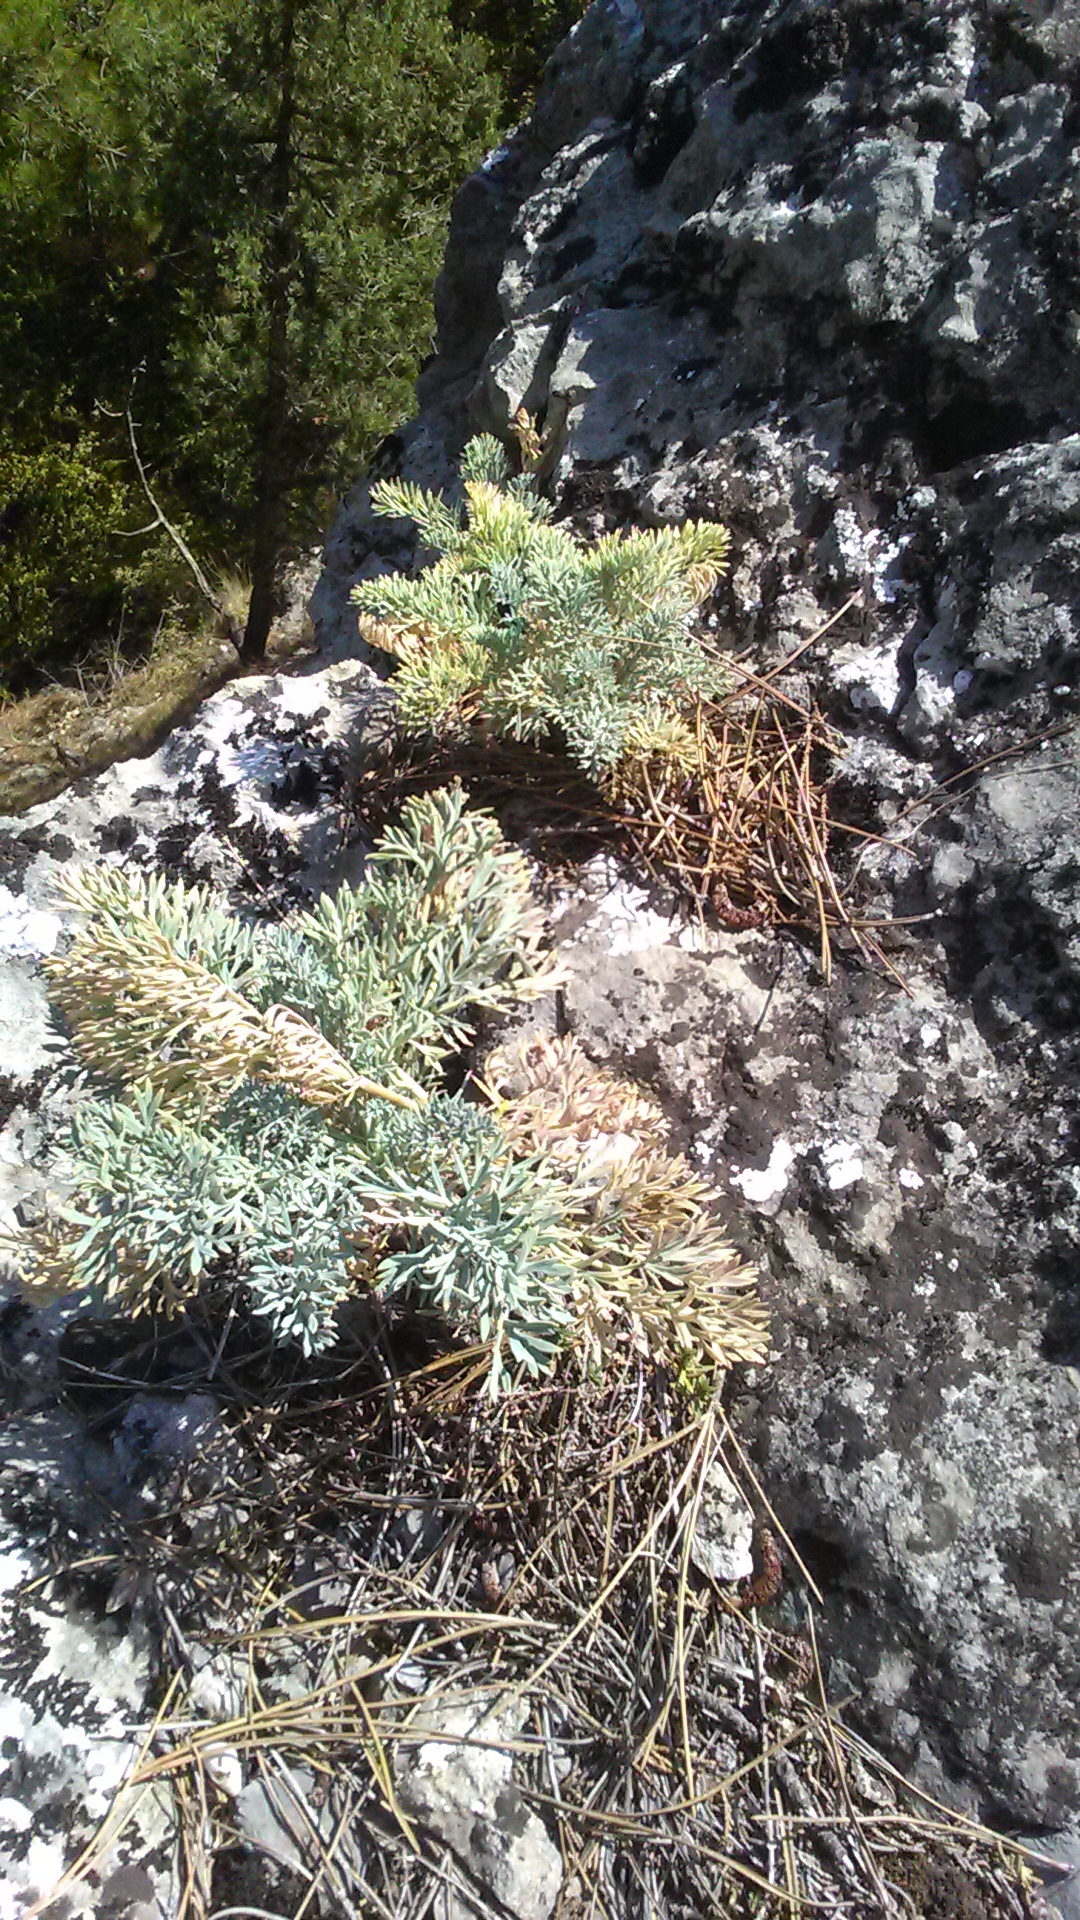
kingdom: Plantae
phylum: Tracheophyta
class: Magnoliopsida
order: Apiales
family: Apiaceae
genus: Seseli
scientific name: Seseli gummiferum
